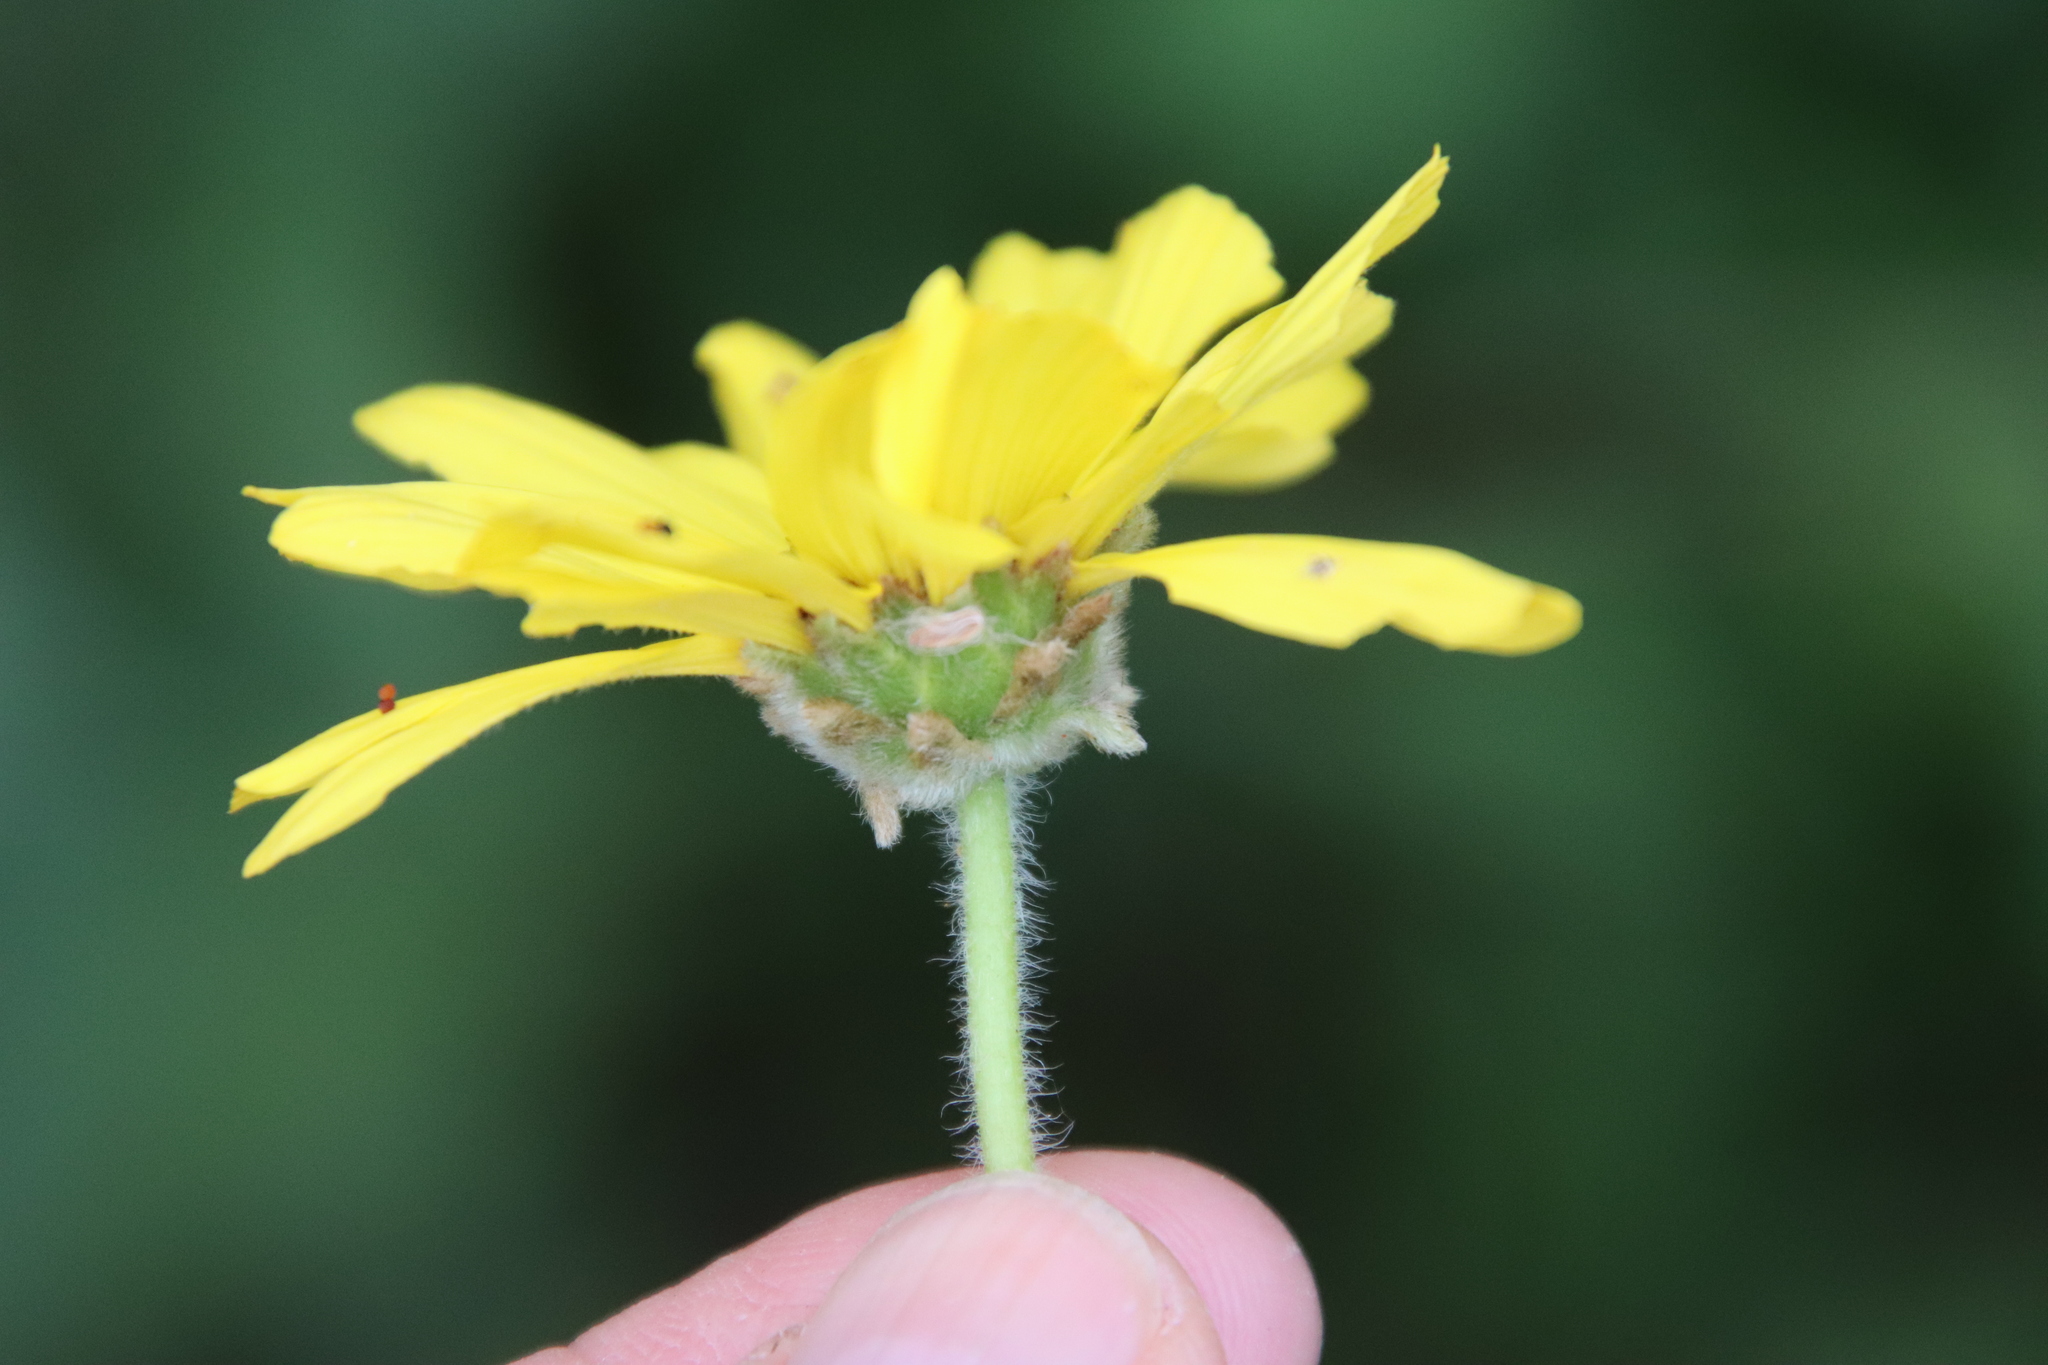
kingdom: Plantae
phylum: Tracheophyta
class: Magnoliopsida
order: Asterales
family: Asteraceae
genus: Encelia
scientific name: Encelia californica
